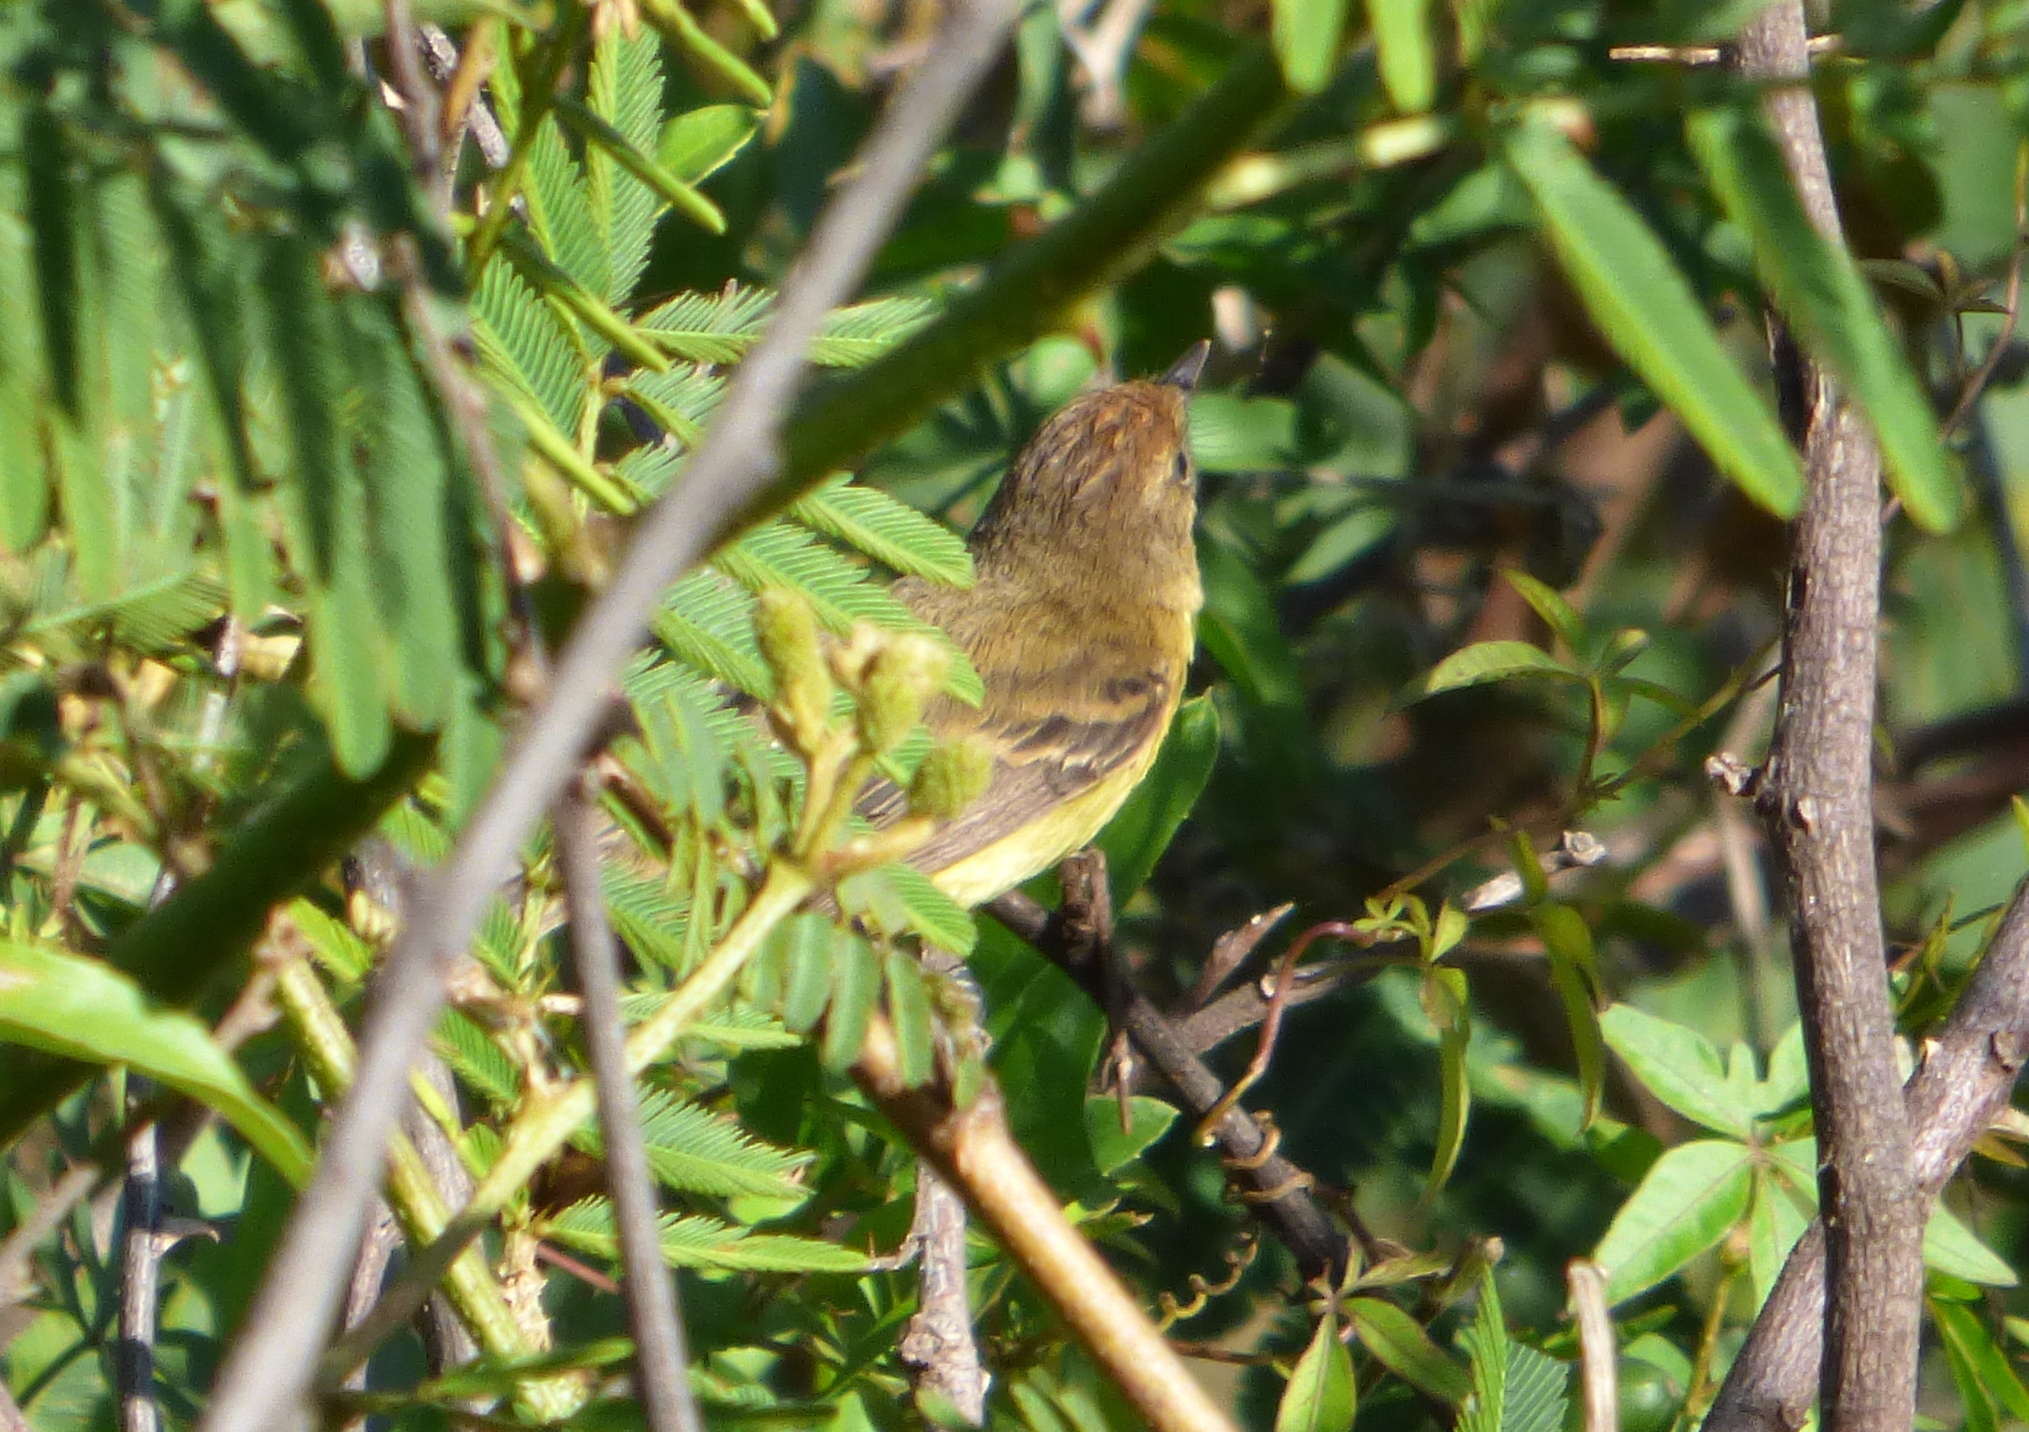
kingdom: Animalia
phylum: Chordata
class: Aves
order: Passeriformes
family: Tyrannidae
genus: Pseudocolopteryx
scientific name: Pseudocolopteryx flaviventris
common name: Warbling doradito
